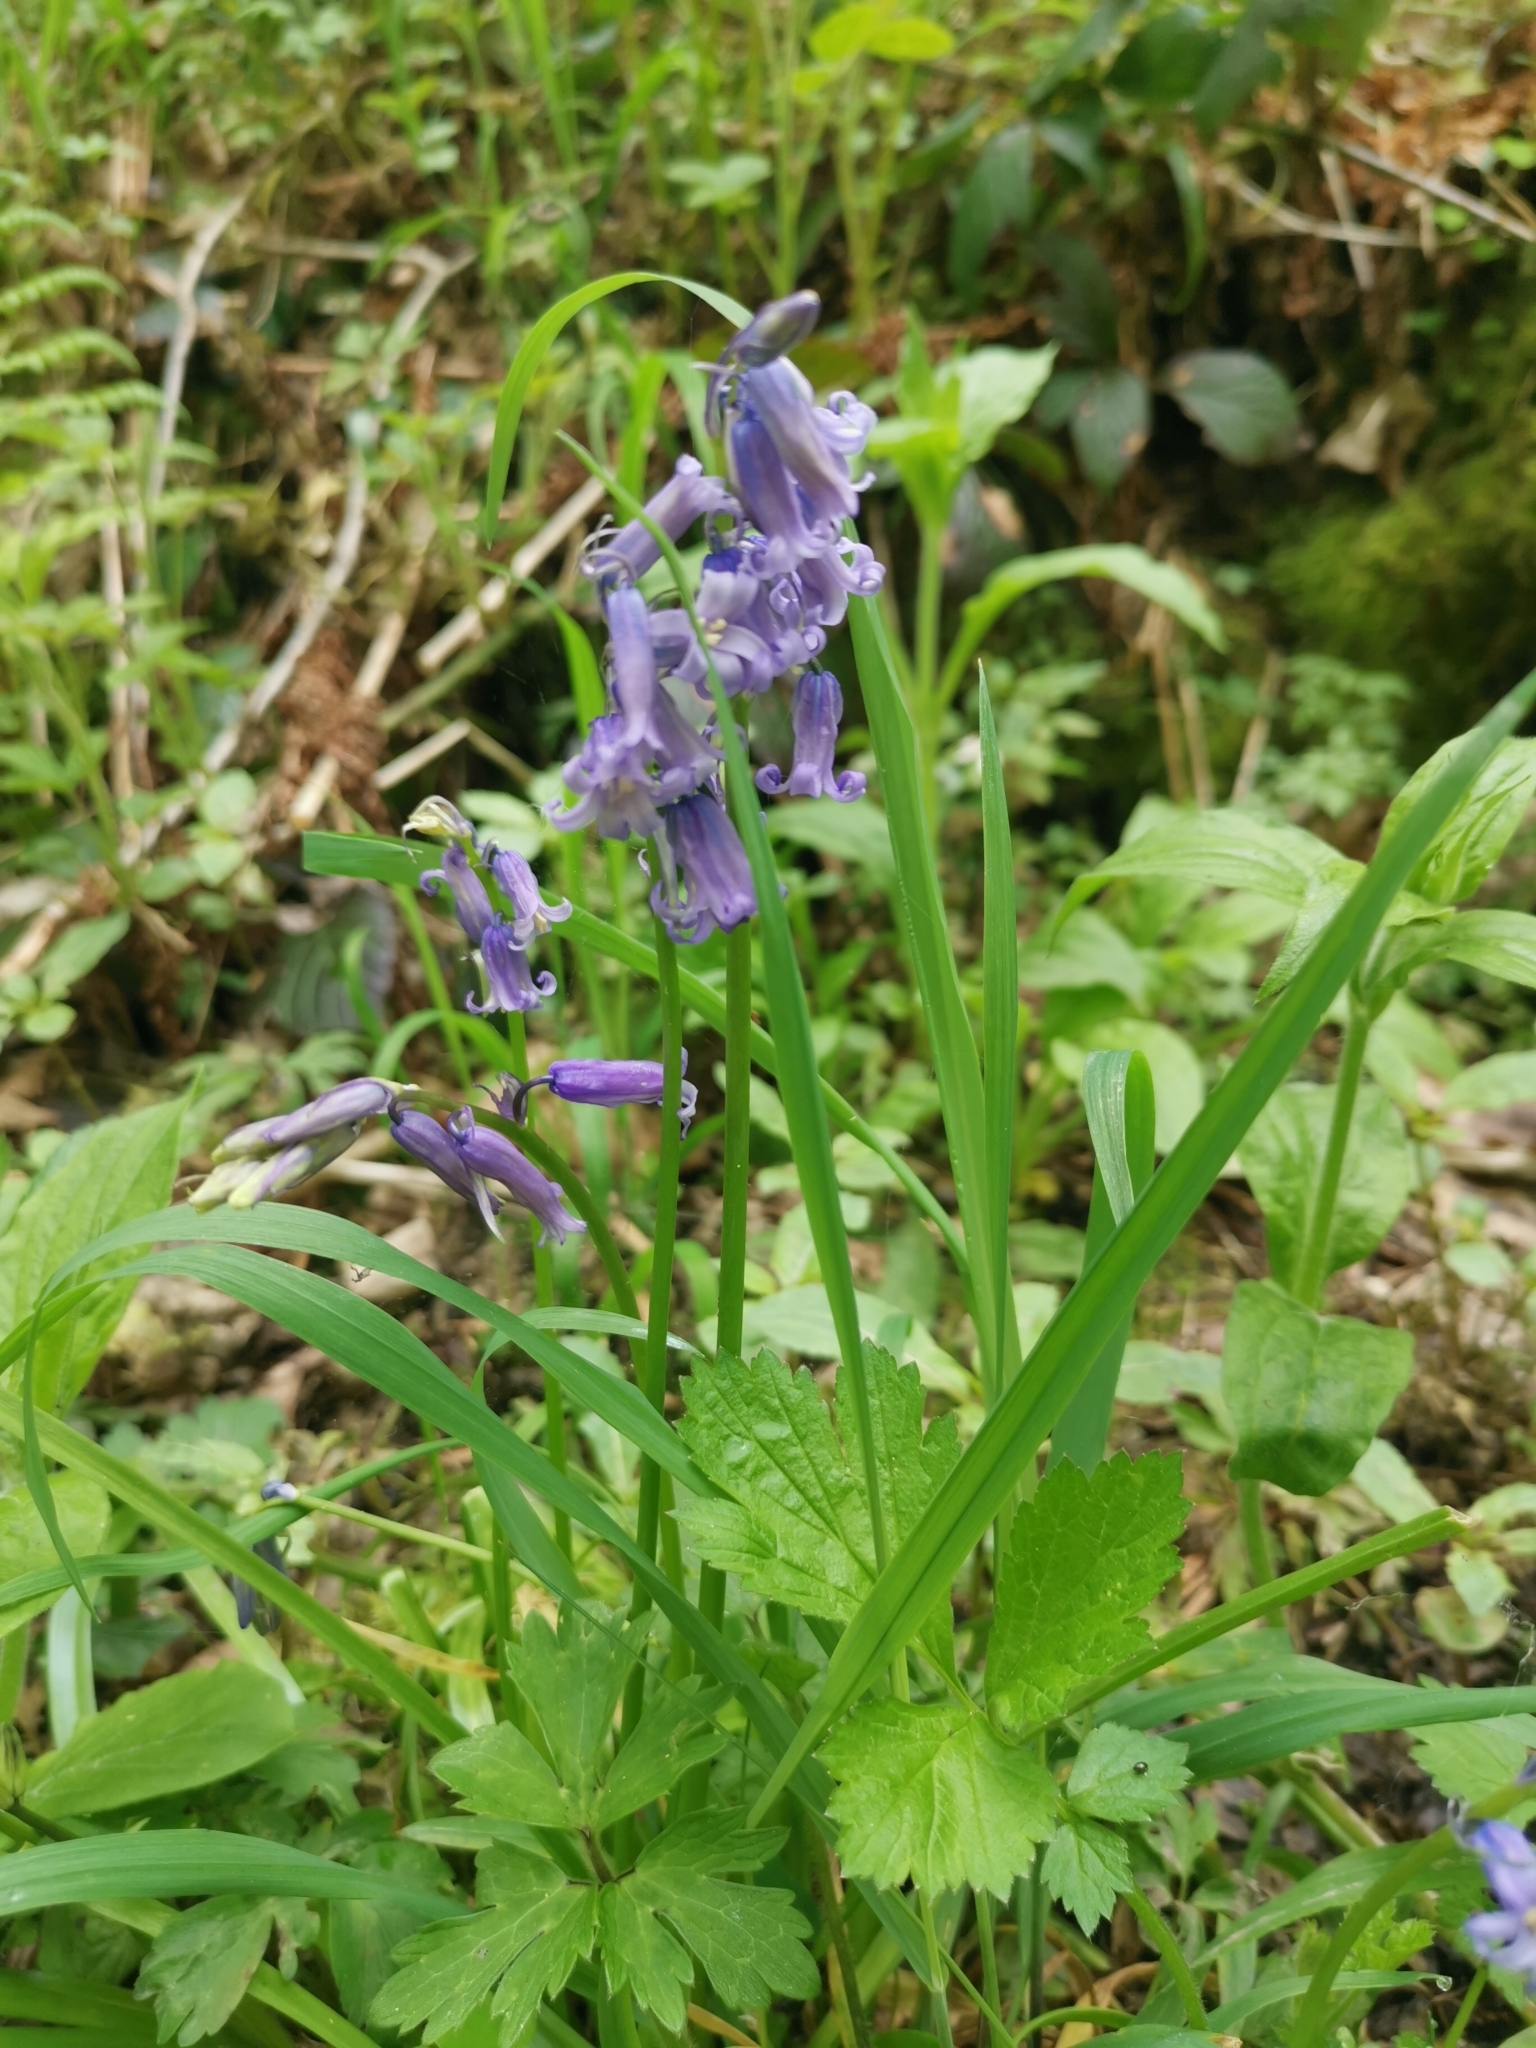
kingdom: Plantae
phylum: Tracheophyta
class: Liliopsida
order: Asparagales
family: Asparagaceae
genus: Hyacinthoides
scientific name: Hyacinthoides non-scripta
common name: Bluebell
